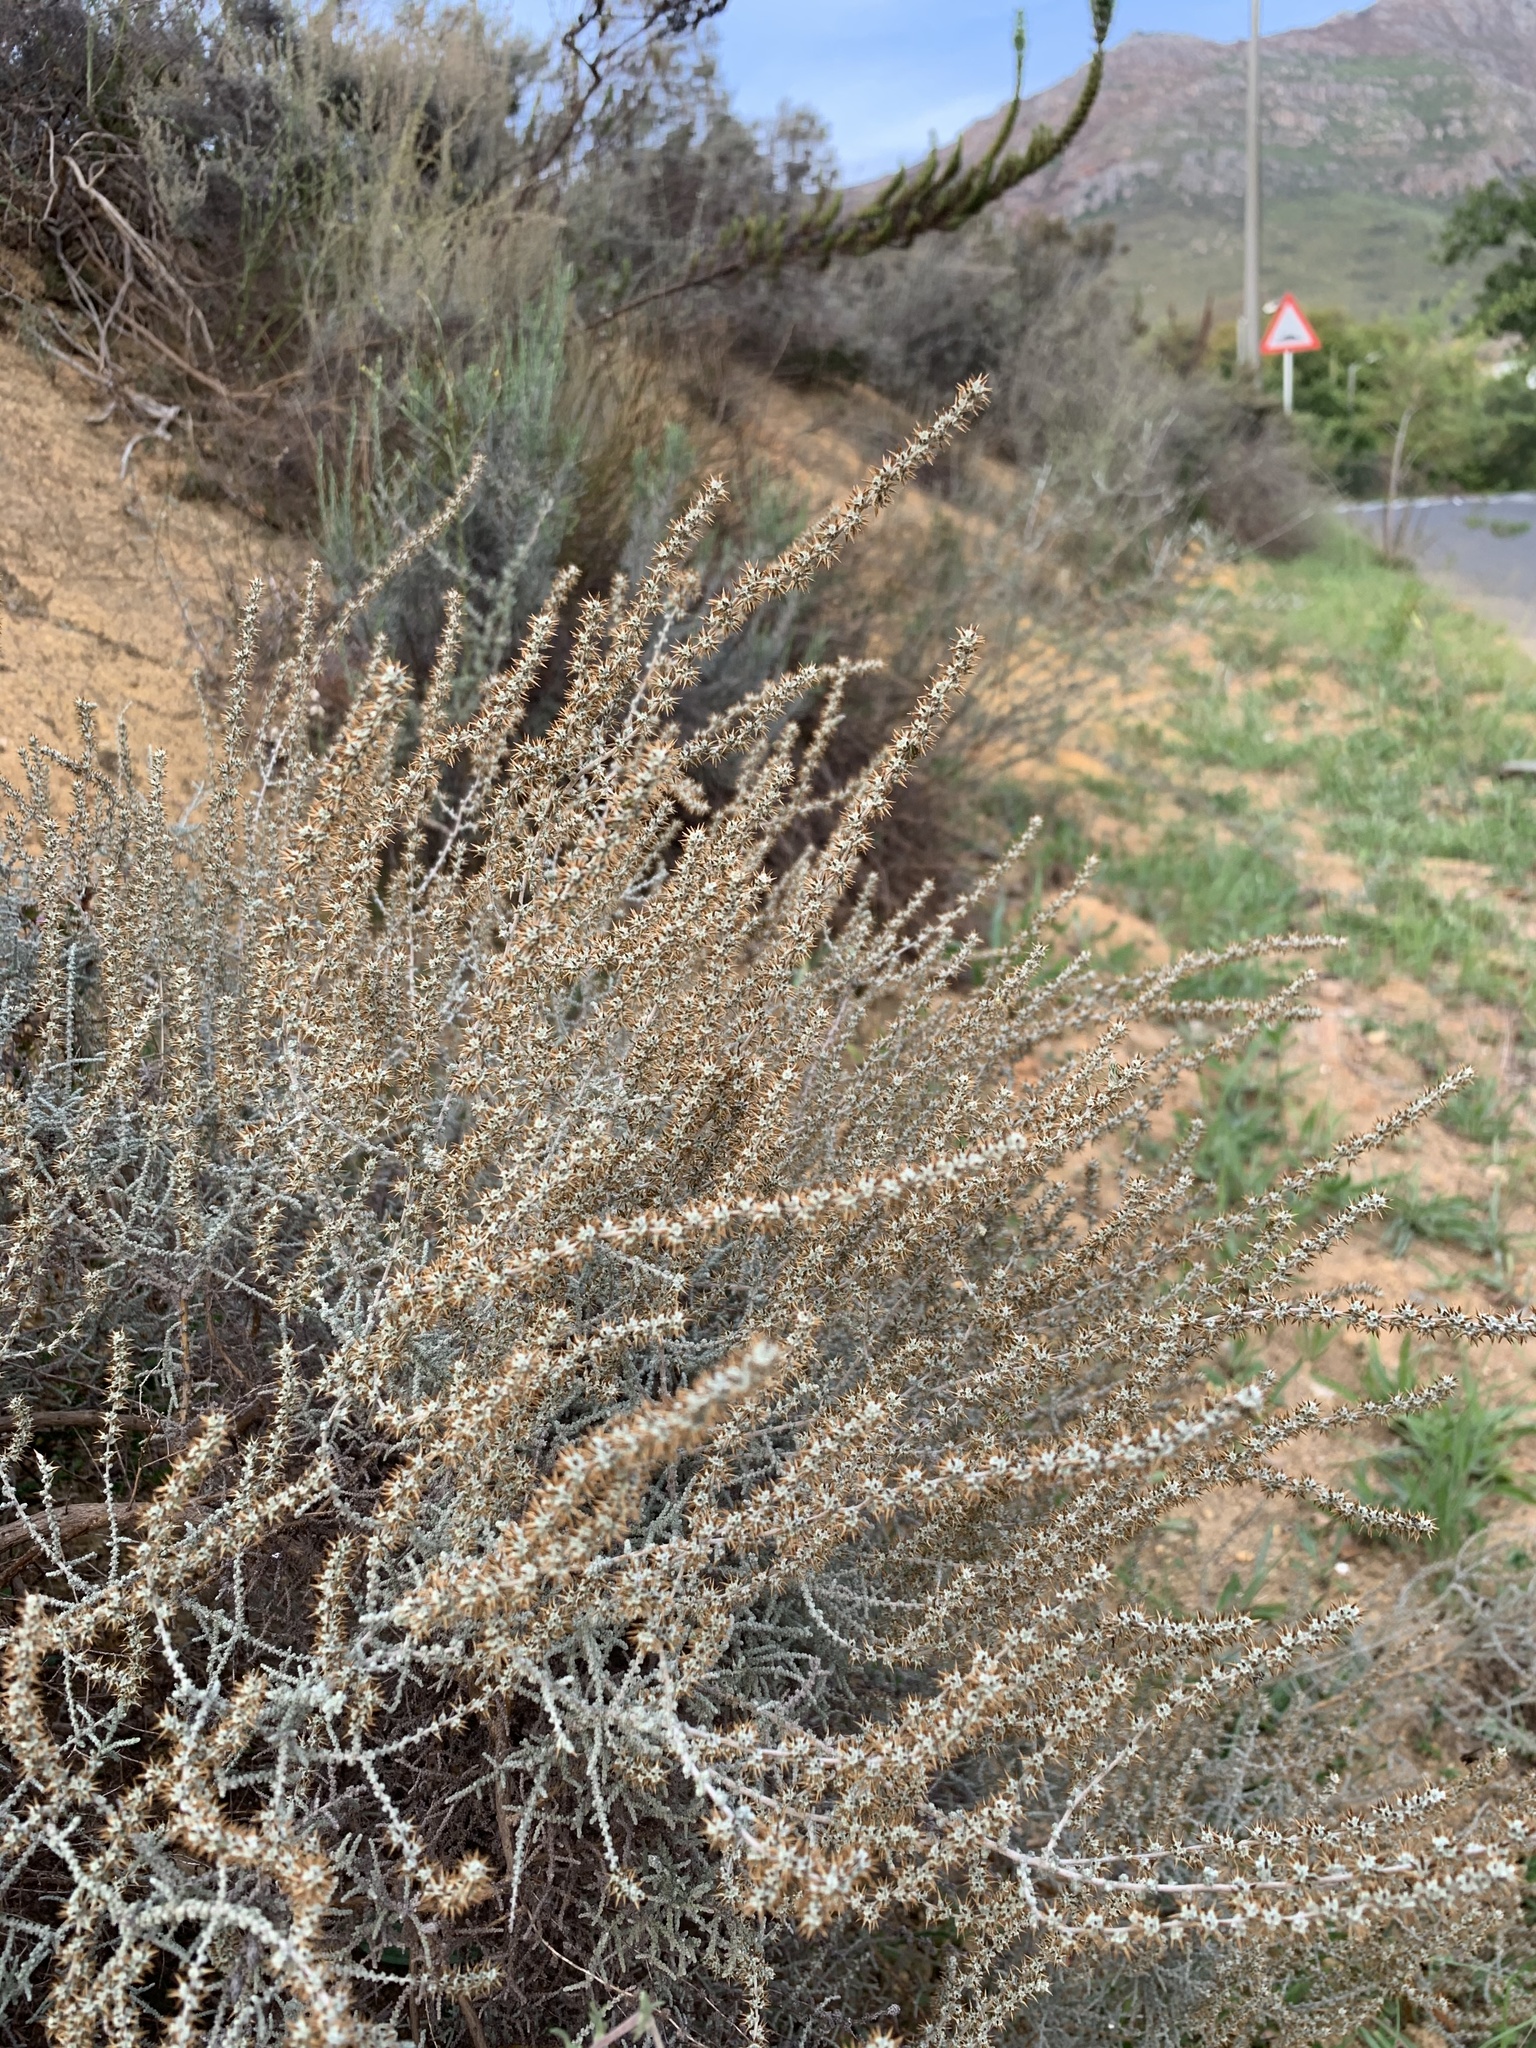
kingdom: Plantae
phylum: Tracheophyta
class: Magnoliopsida
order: Asterales
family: Asteraceae
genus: Seriphium
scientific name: Seriphium plumosum
